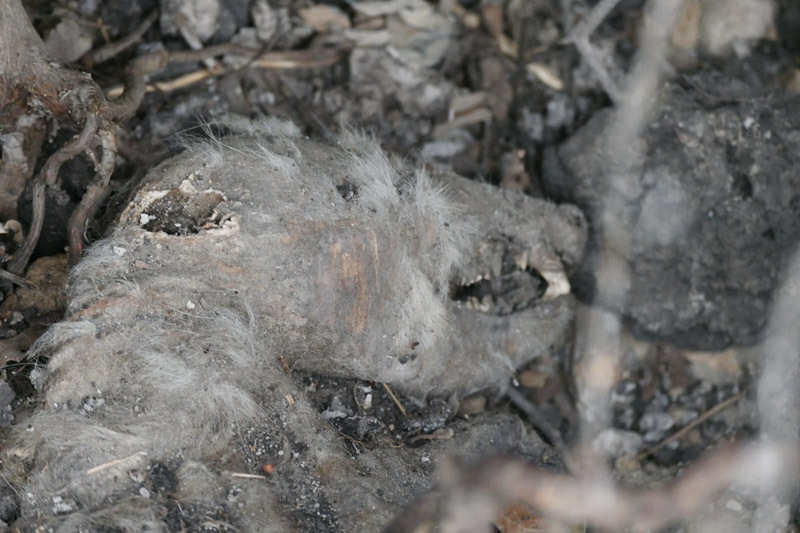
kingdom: Animalia
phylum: Chordata
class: Mammalia
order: Didelphimorphia
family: Didelphidae
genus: Didelphis
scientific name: Didelphis virginiana
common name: Virginia opossum
